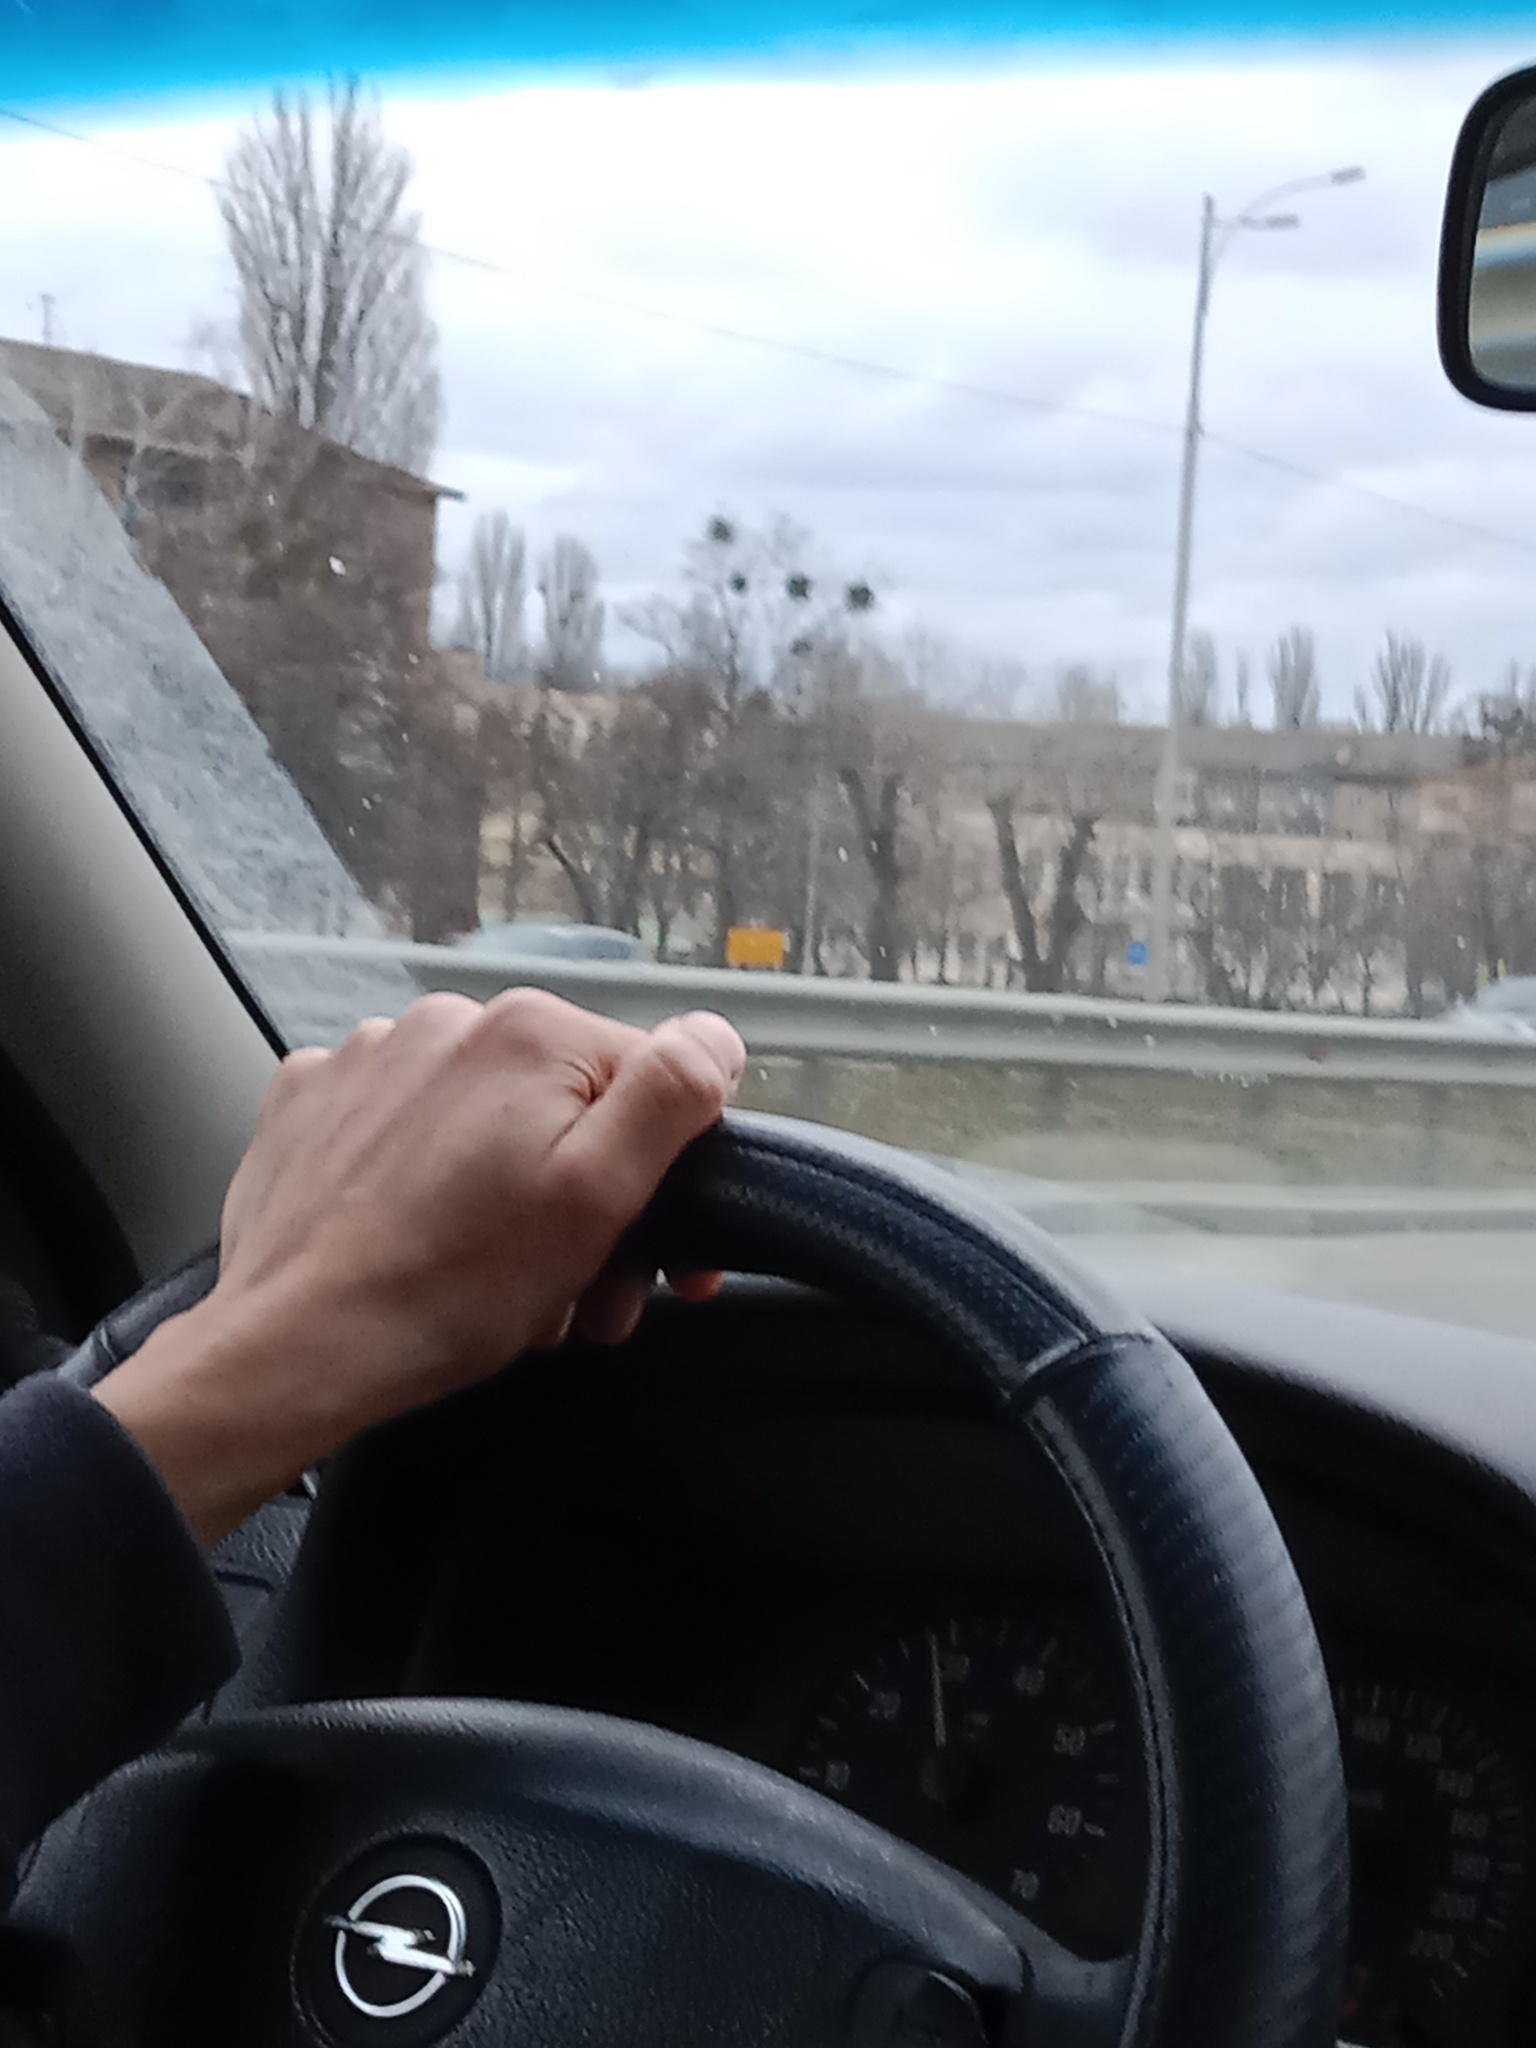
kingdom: Plantae
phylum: Tracheophyta
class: Magnoliopsida
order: Santalales
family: Viscaceae
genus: Viscum
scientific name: Viscum album
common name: Mistletoe
